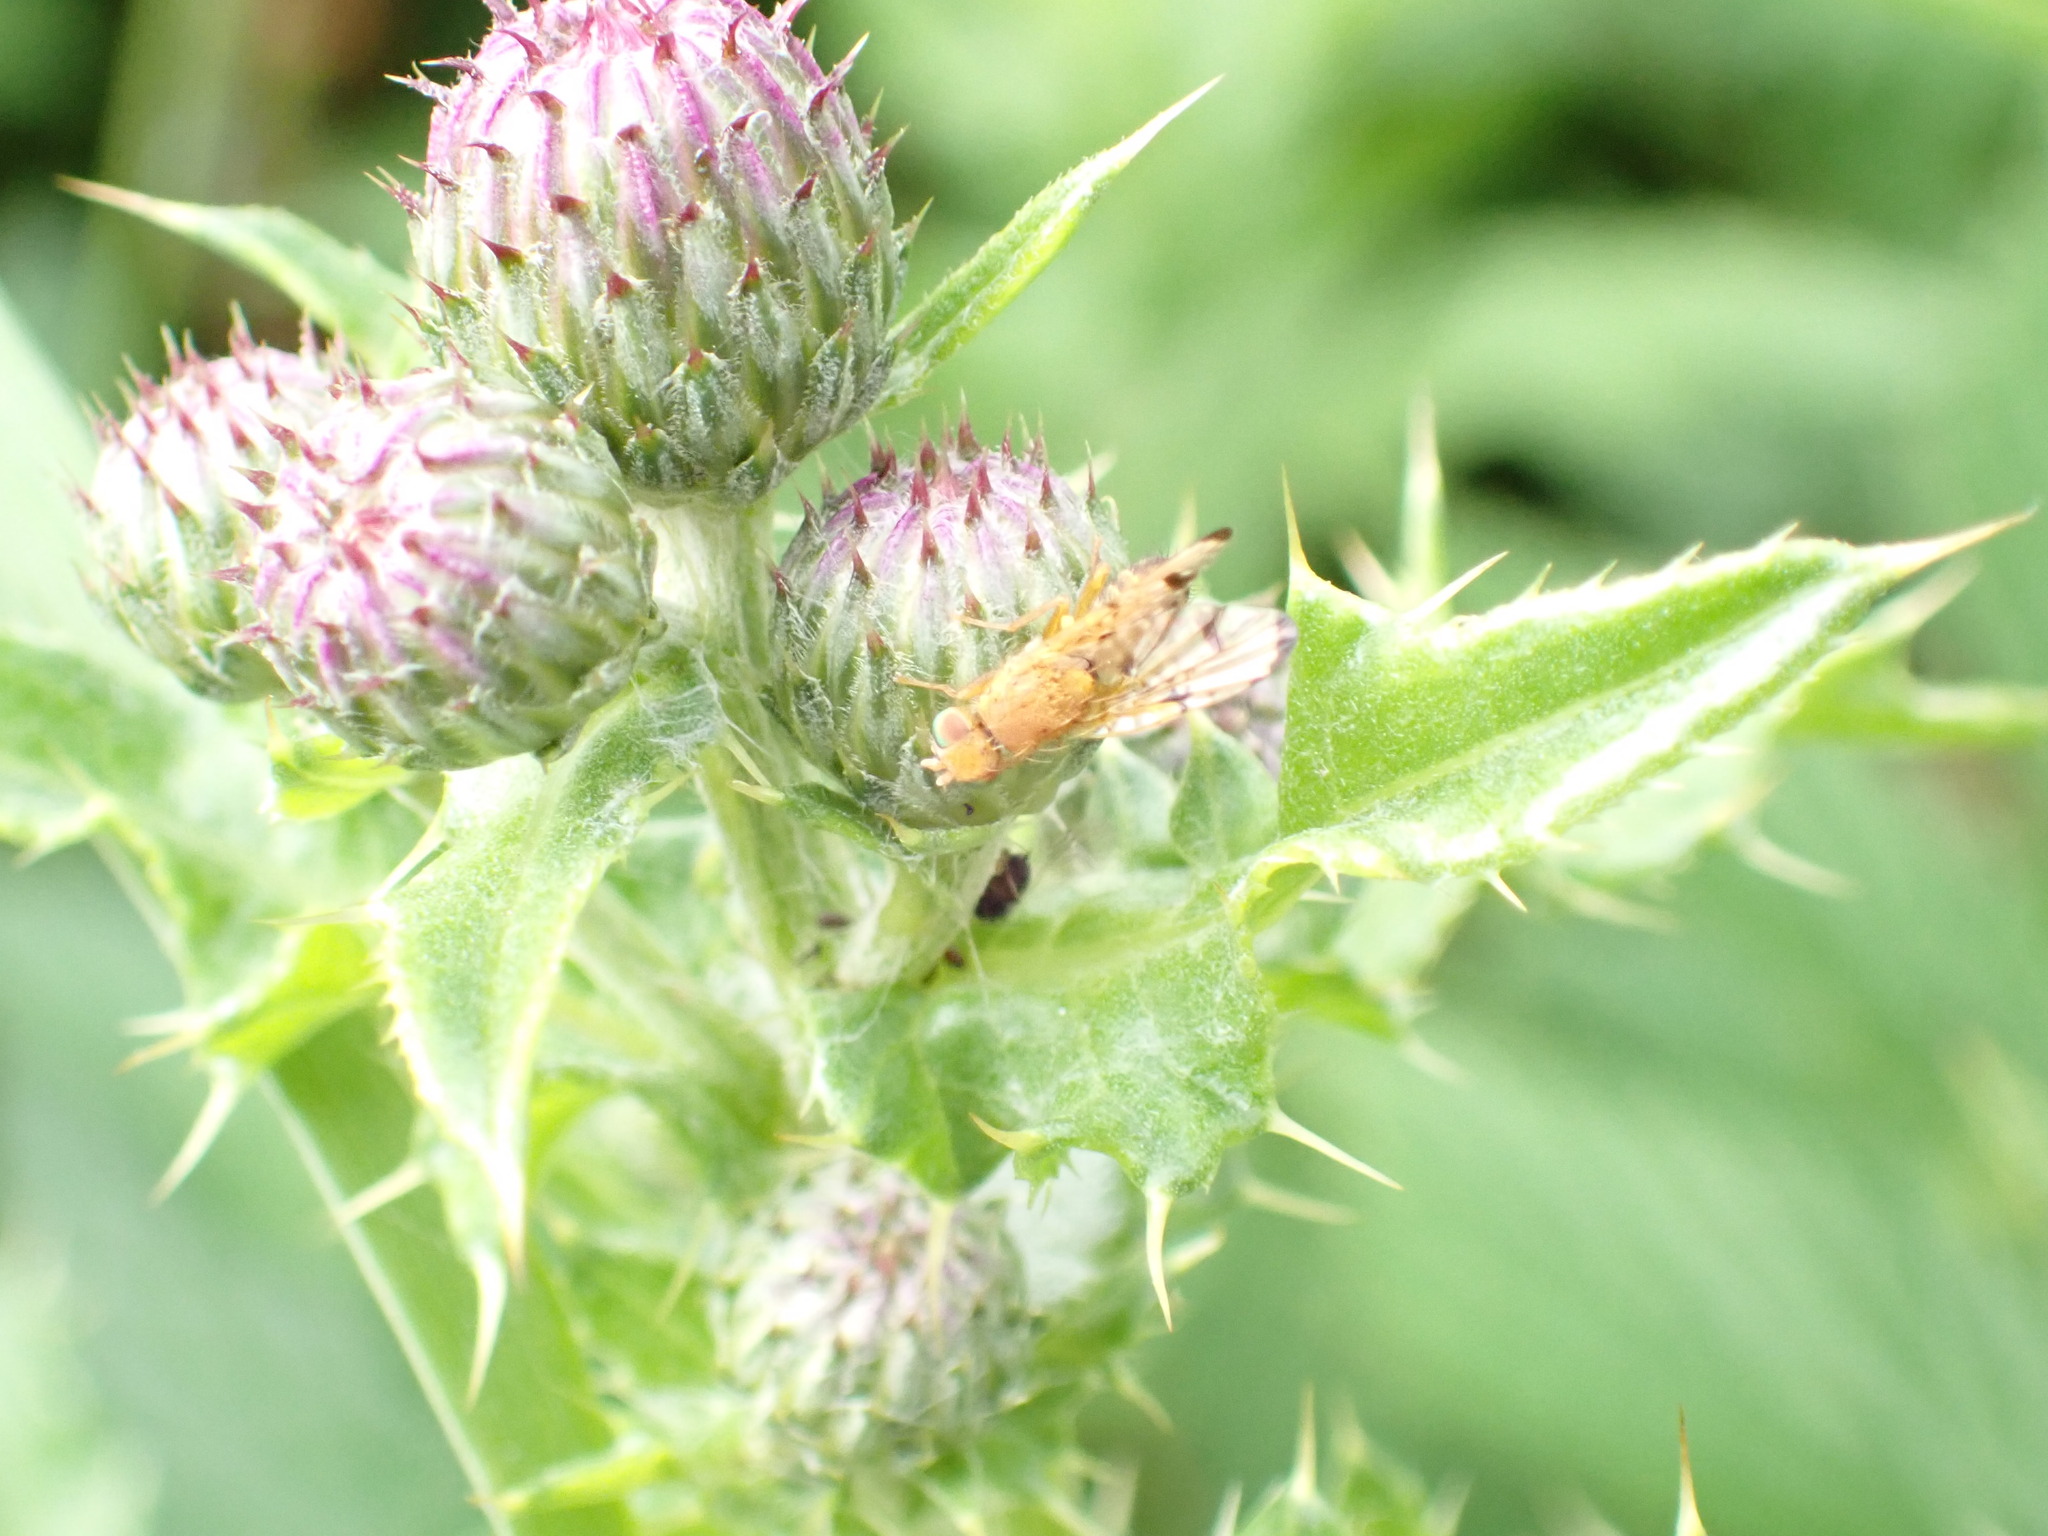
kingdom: Animalia
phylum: Arthropoda
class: Insecta
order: Diptera
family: Tephritidae
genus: Xyphosia
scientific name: Xyphosia miliaria
